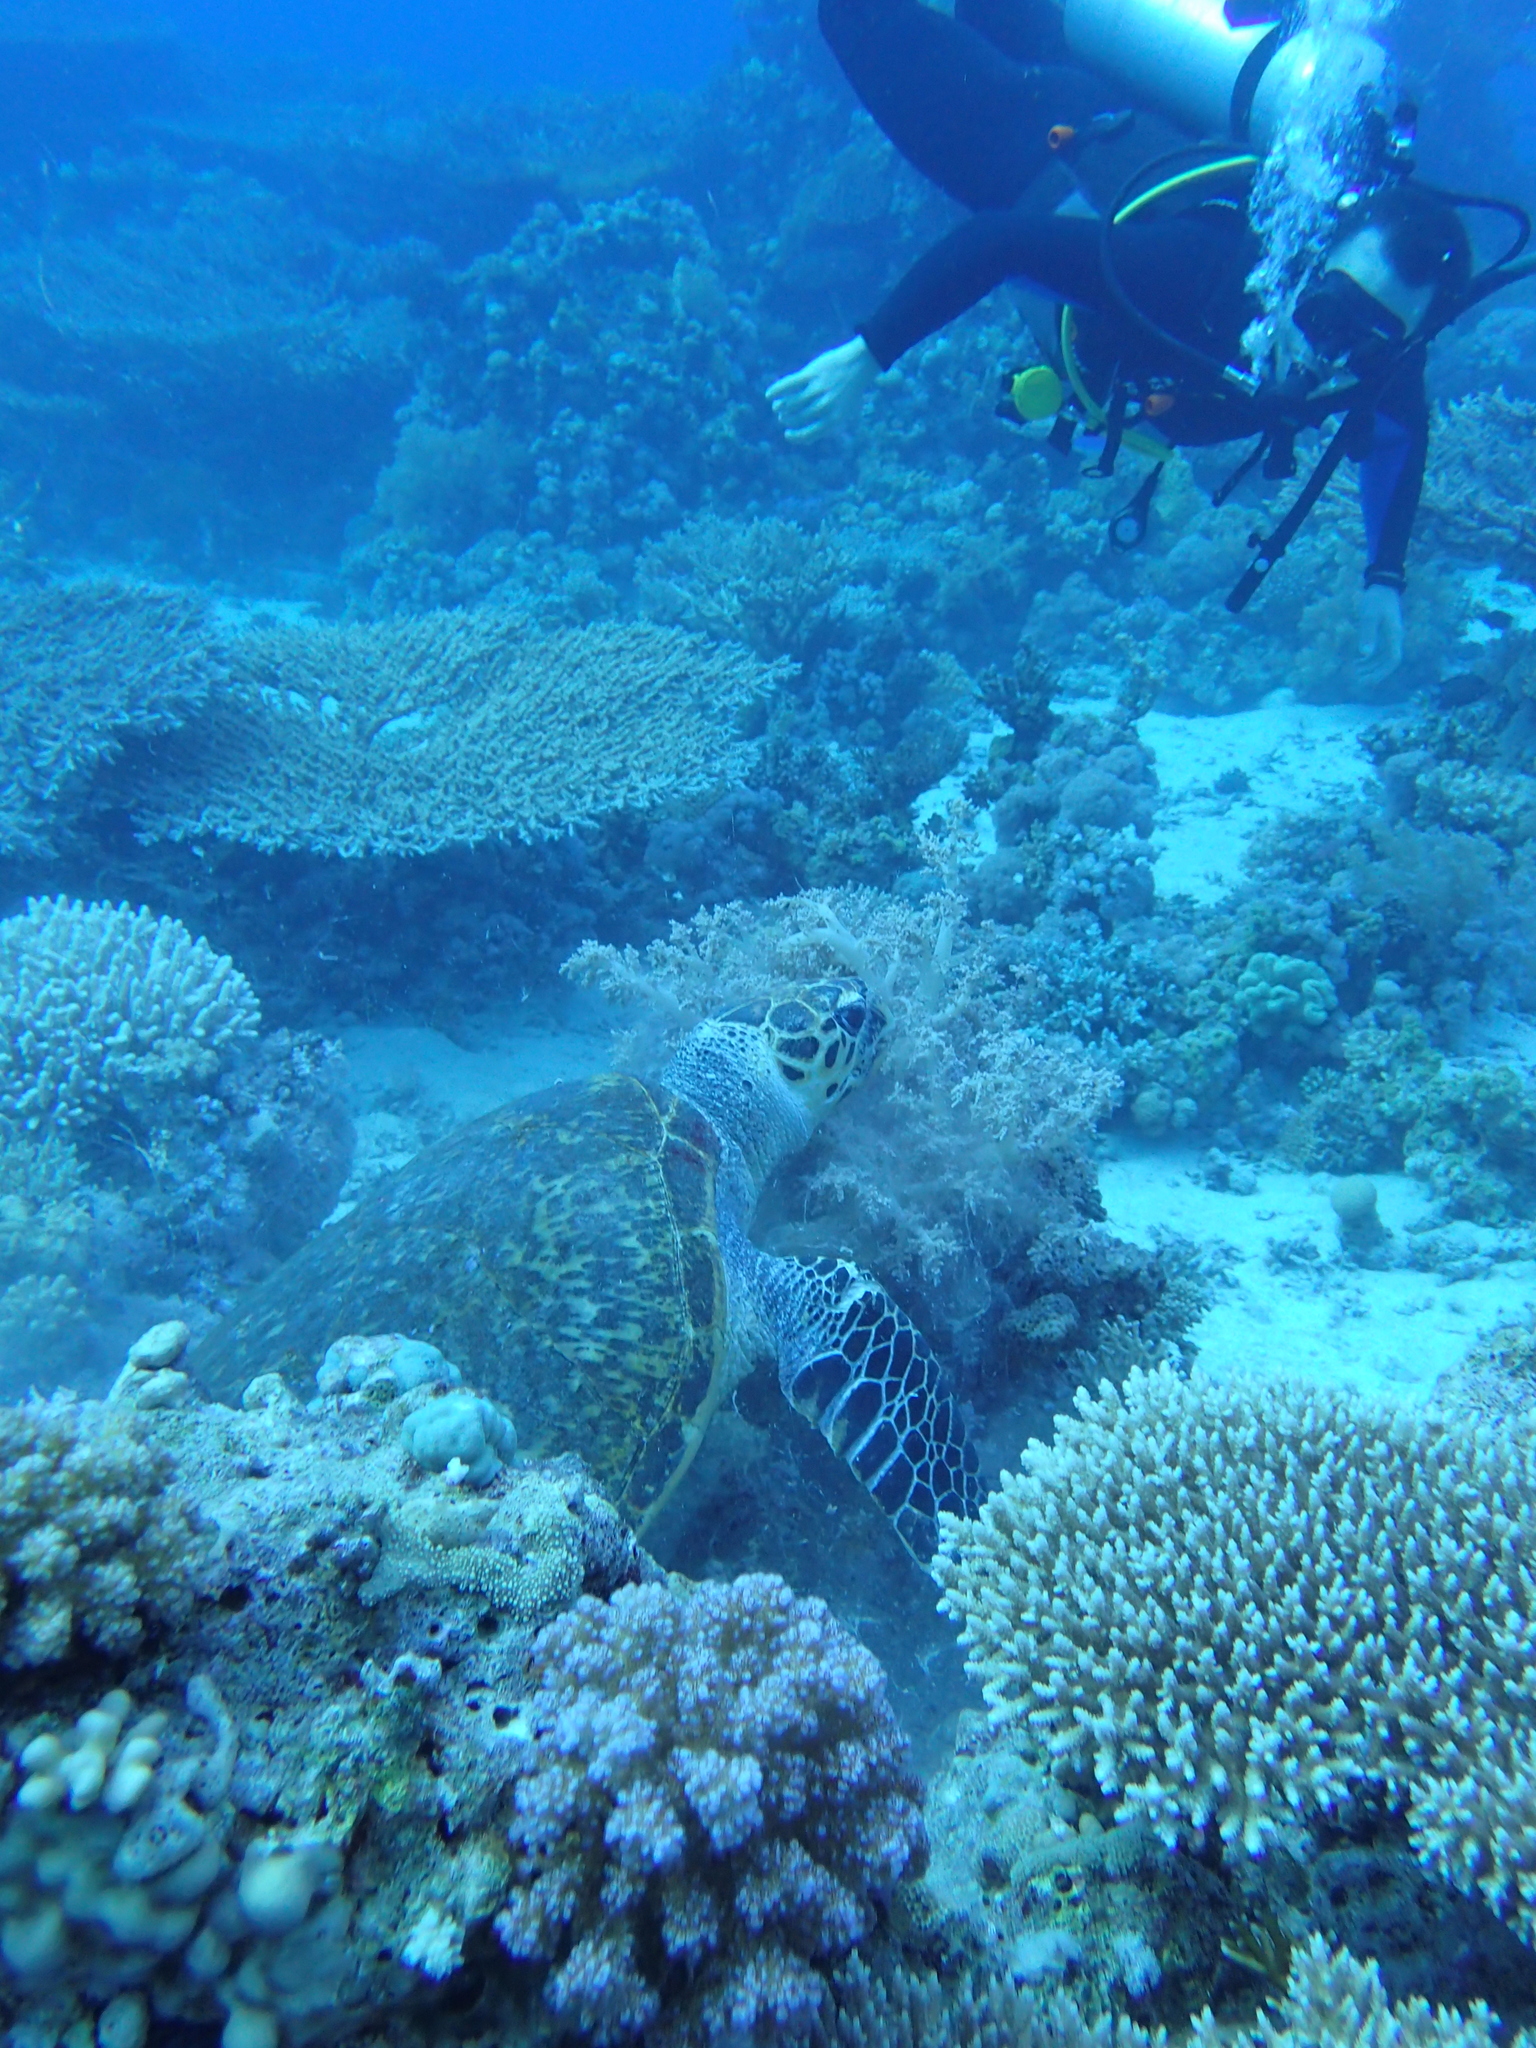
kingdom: Animalia
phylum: Chordata
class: Testudines
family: Cheloniidae
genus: Eretmochelys
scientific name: Eretmochelys imbricata
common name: Hawksbill turtle
